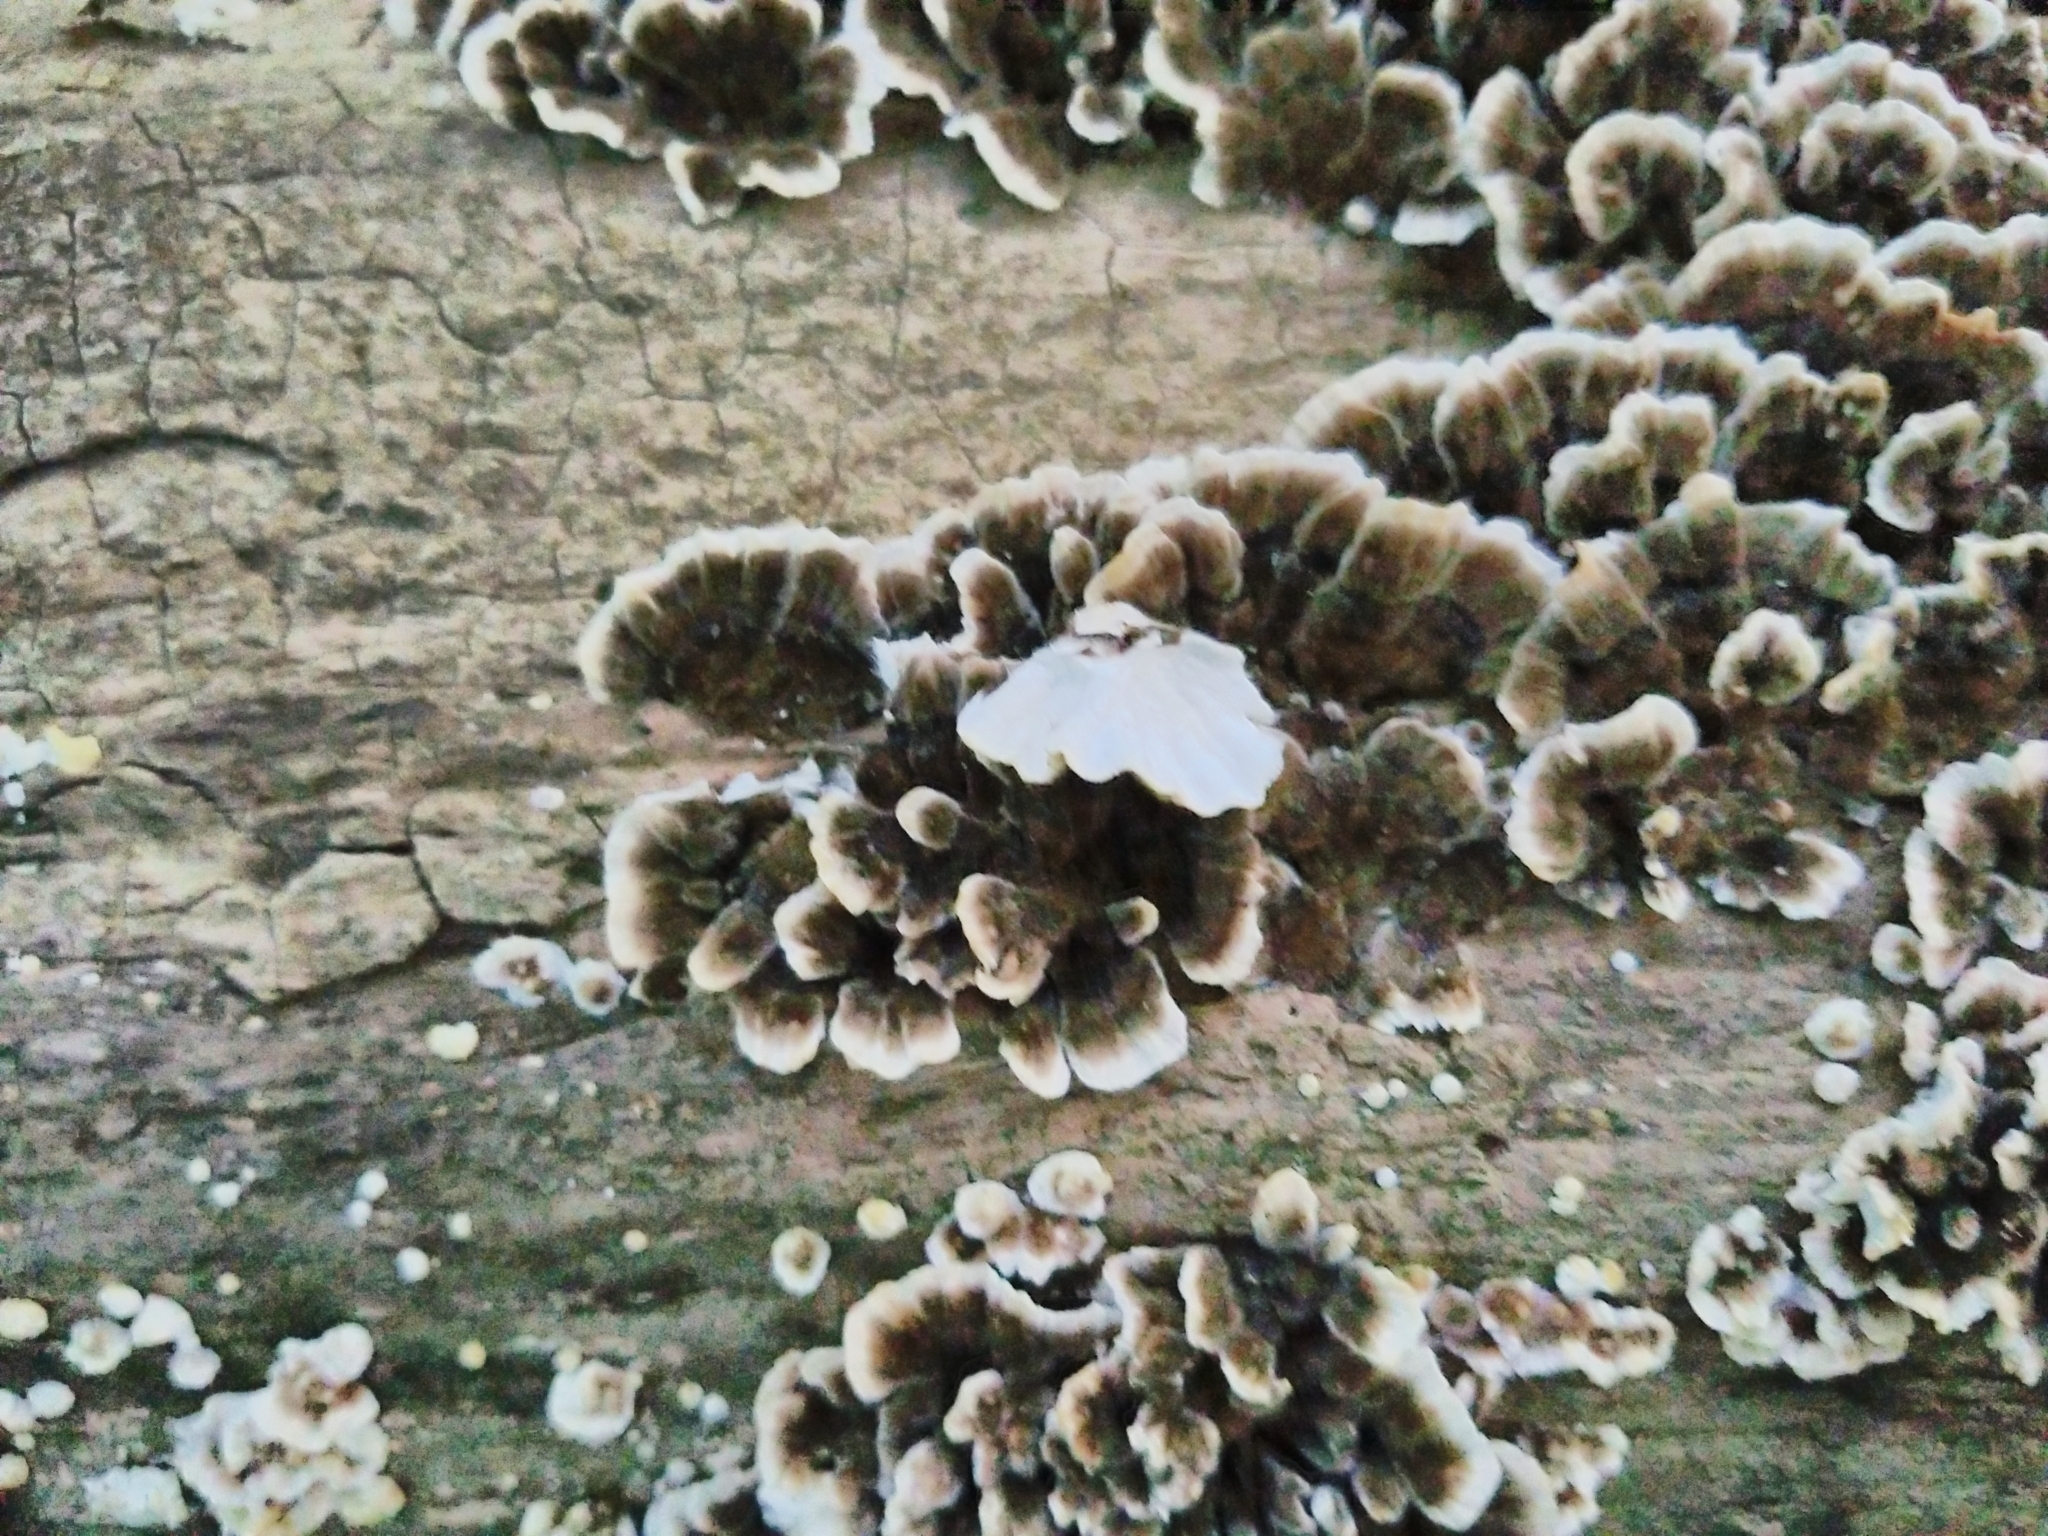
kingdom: Fungi
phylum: Basidiomycota
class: Agaricomycetes
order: Polyporales
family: Polyporaceae
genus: Trametes
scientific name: Trametes versicolor
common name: Turkeytail
